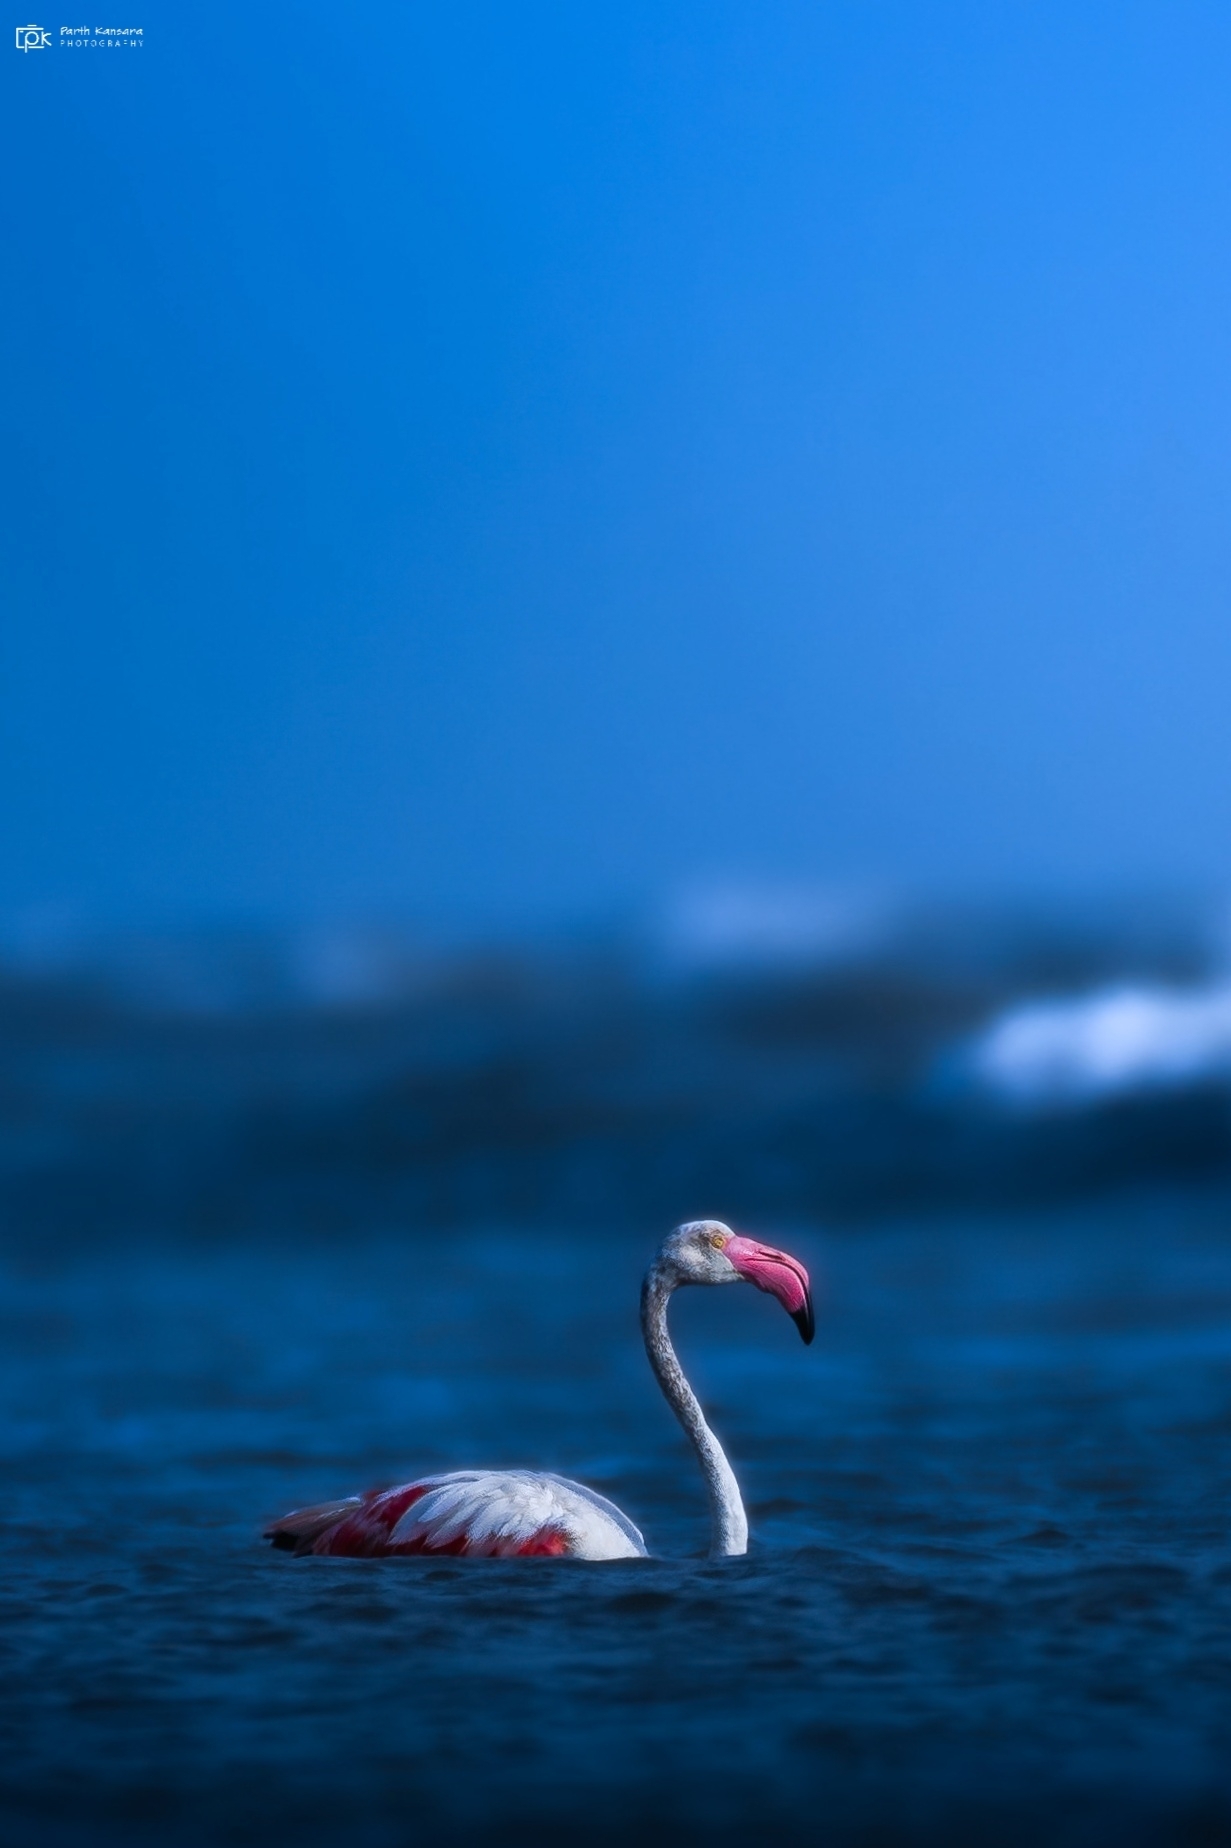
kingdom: Animalia
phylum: Chordata
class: Aves
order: Phoenicopteriformes
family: Phoenicopteridae
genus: Phoenicopterus
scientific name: Phoenicopterus roseus
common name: Greater flamingo
